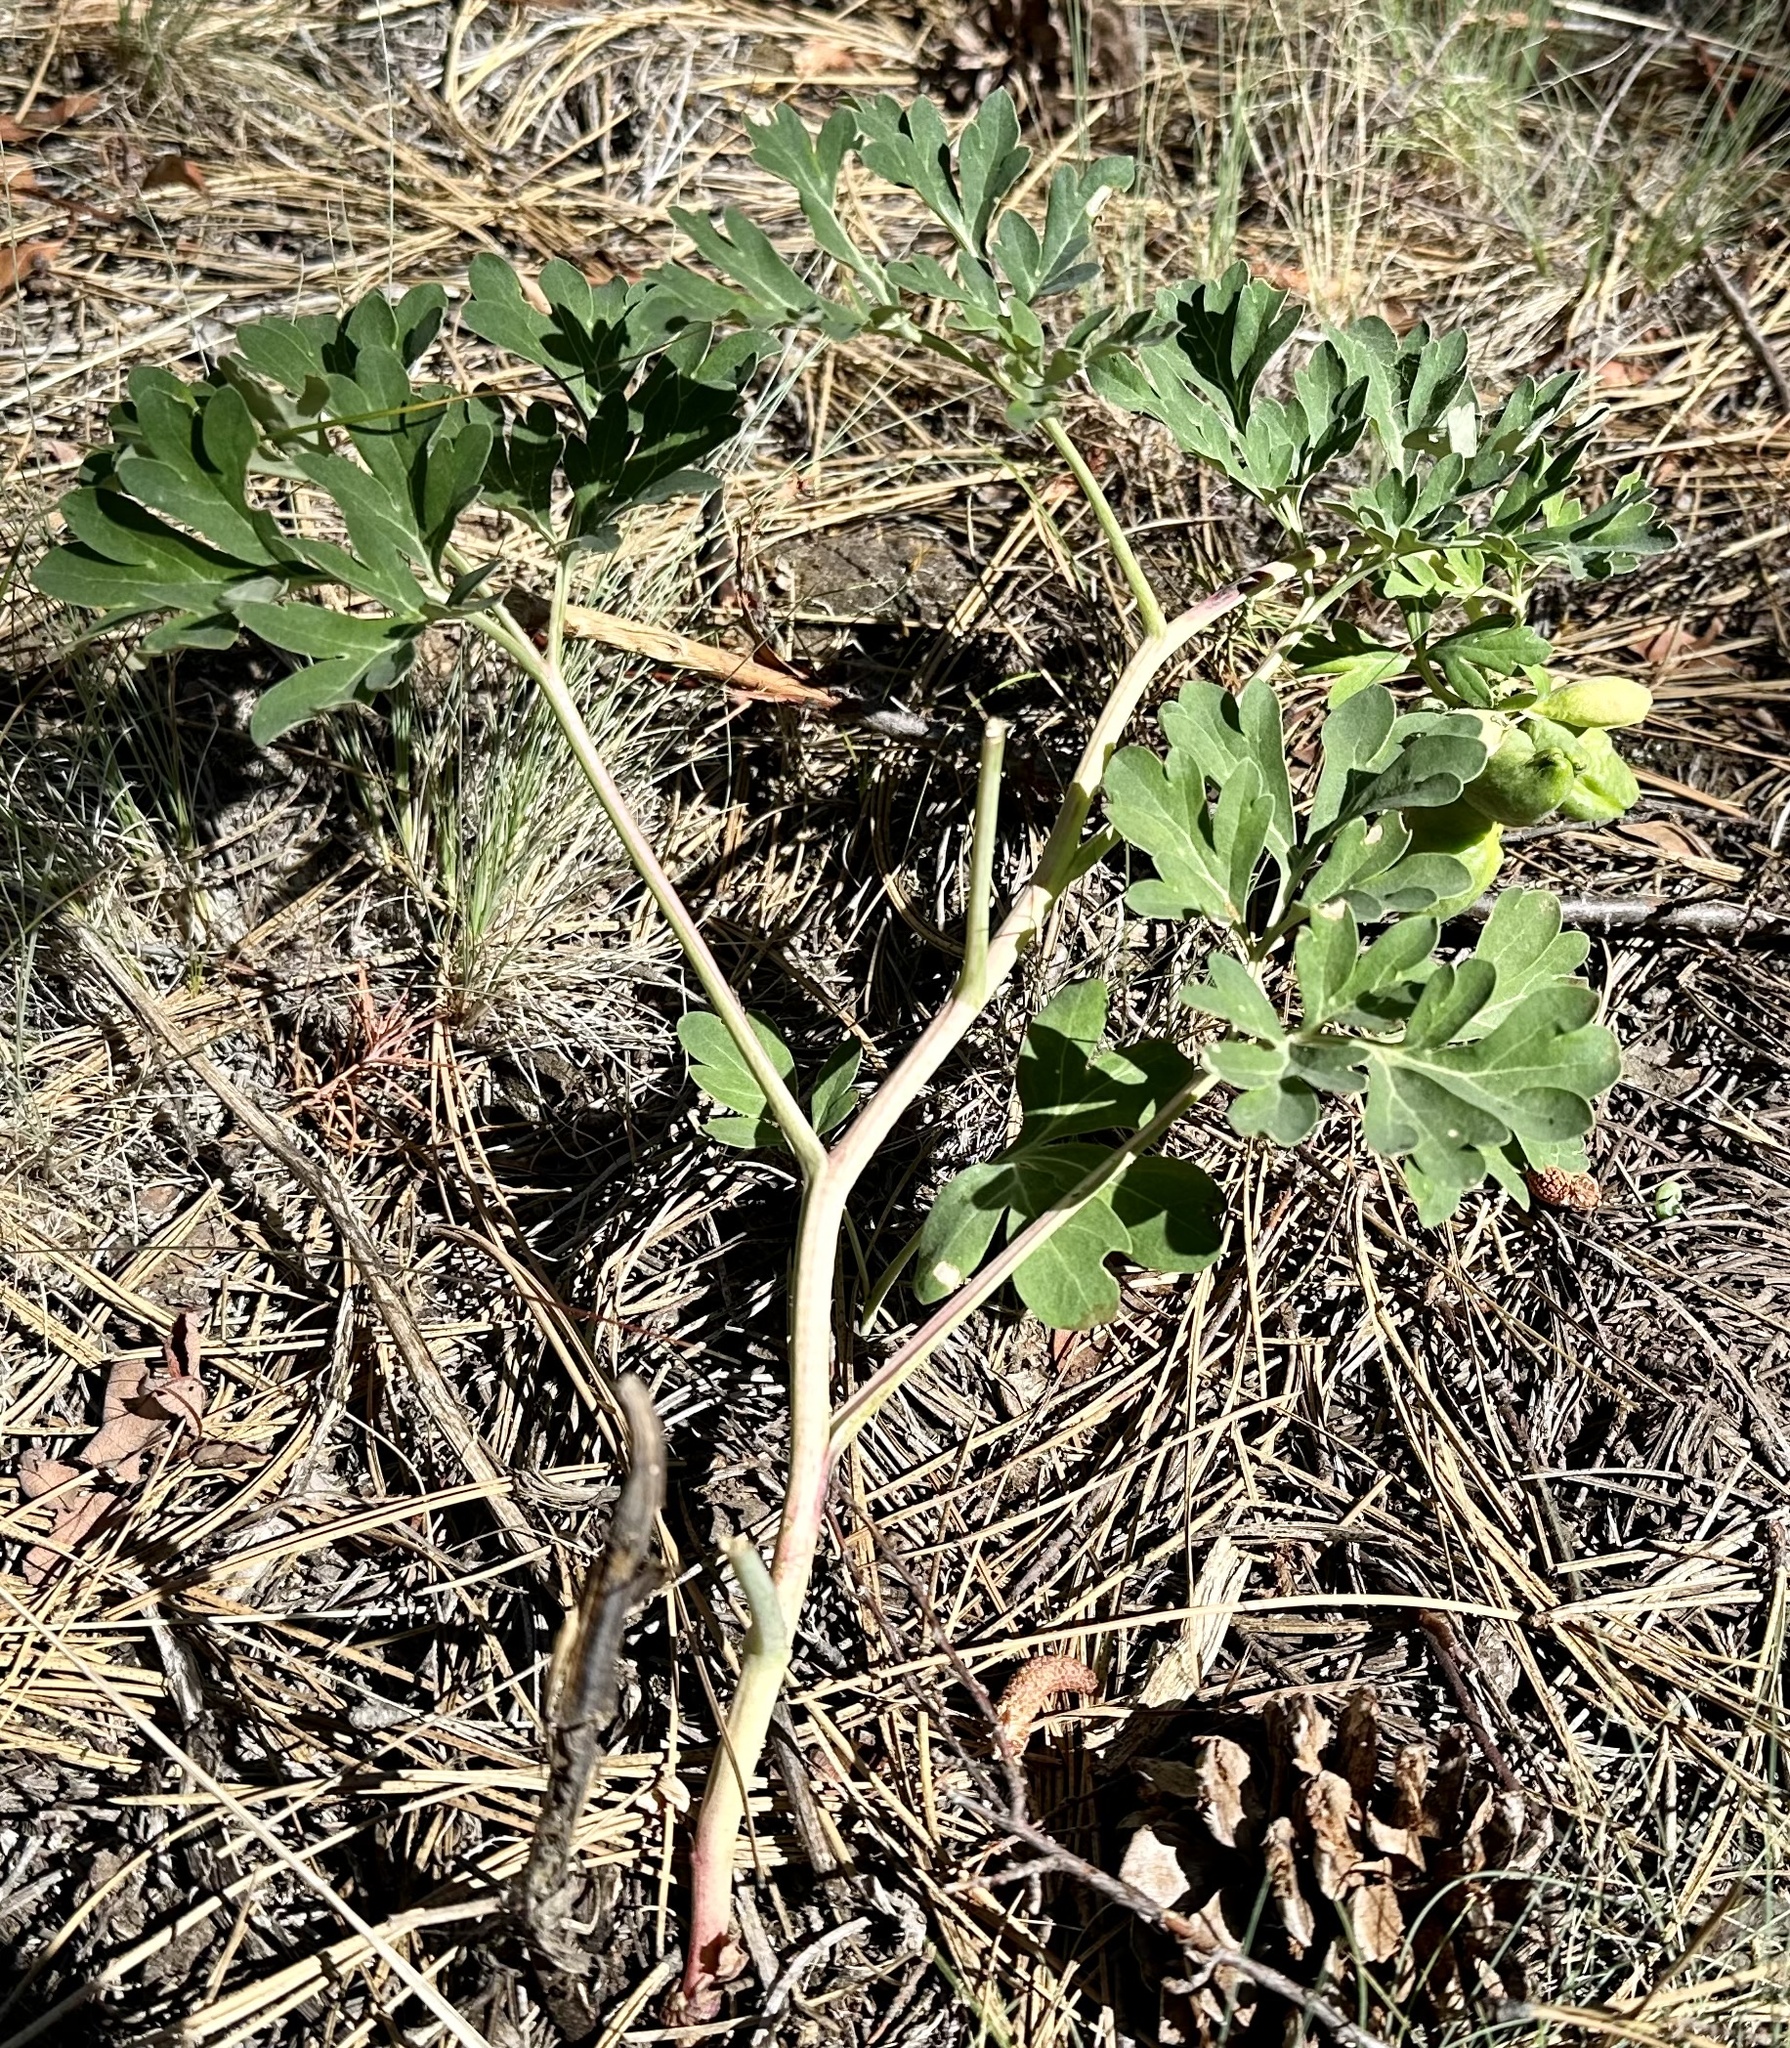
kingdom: Plantae
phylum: Tracheophyta
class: Magnoliopsida
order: Saxifragales
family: Paeoniaceae
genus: Paeonia
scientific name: Paeonia brownii
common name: Brown's peony
